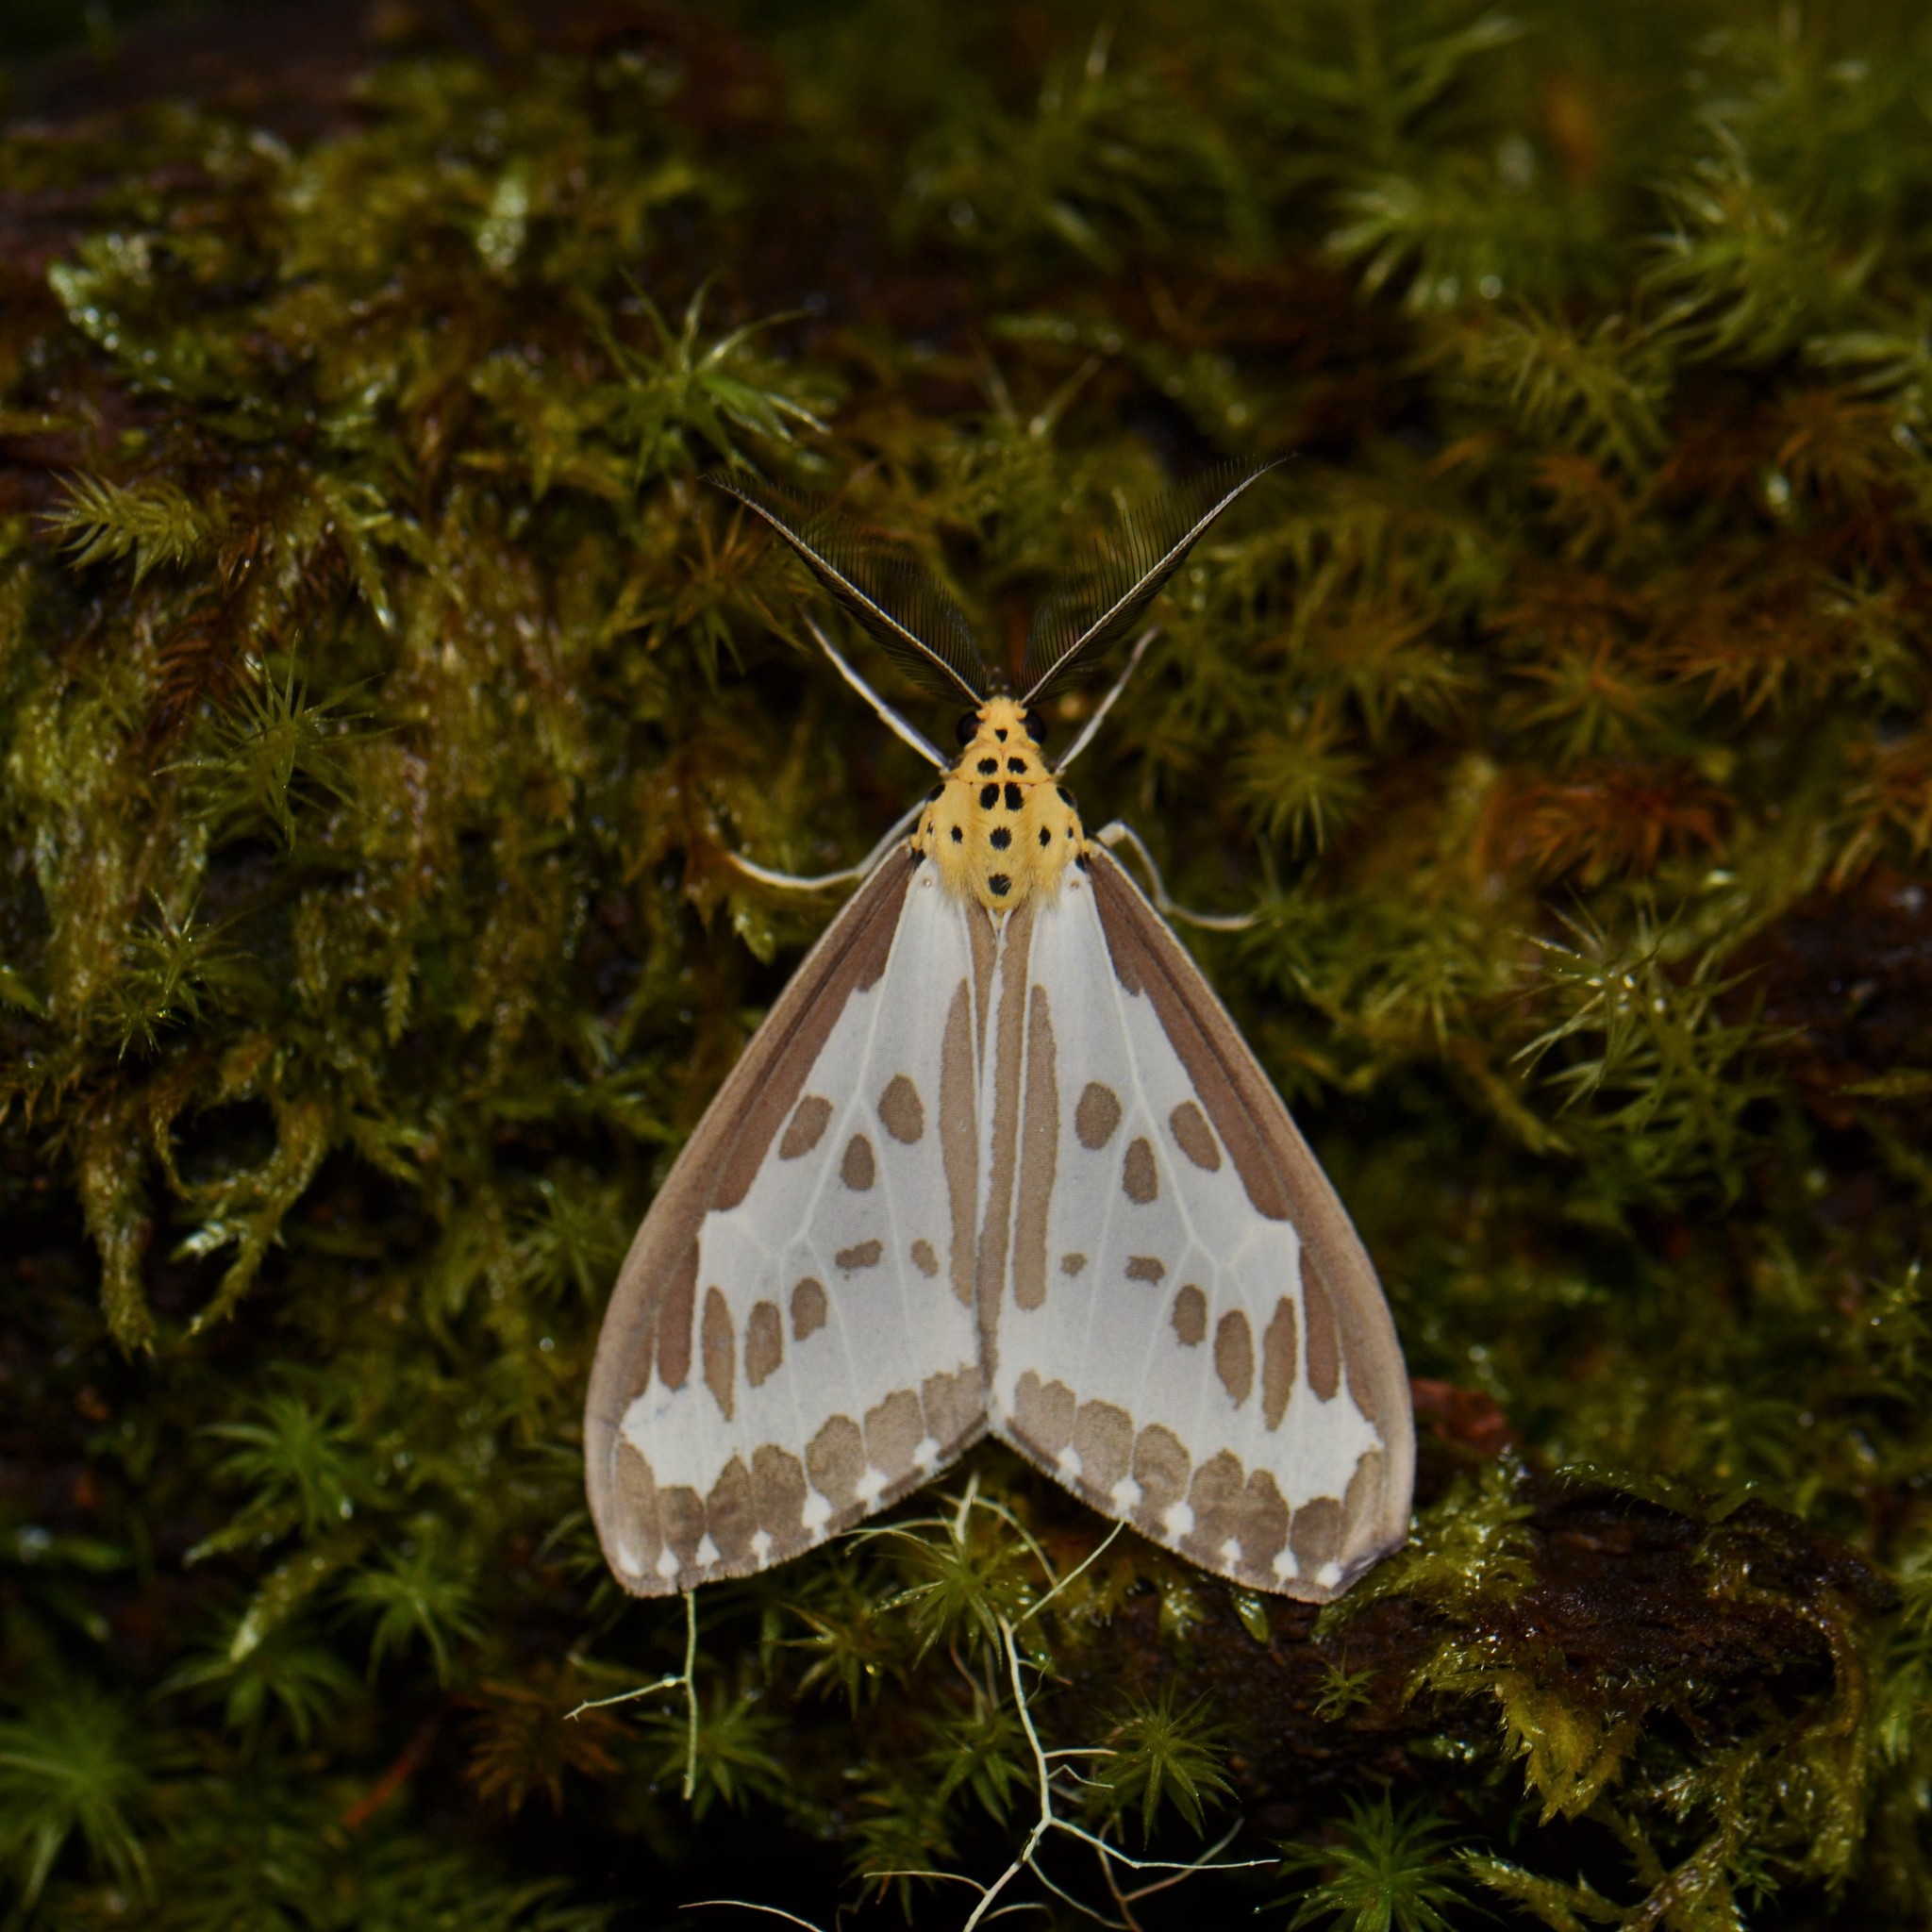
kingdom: Animalia
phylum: Arthropoda
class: Insecta
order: Lepidoptera
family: Erebidae
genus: Nyctemera
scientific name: Nyctemera zerenoides
